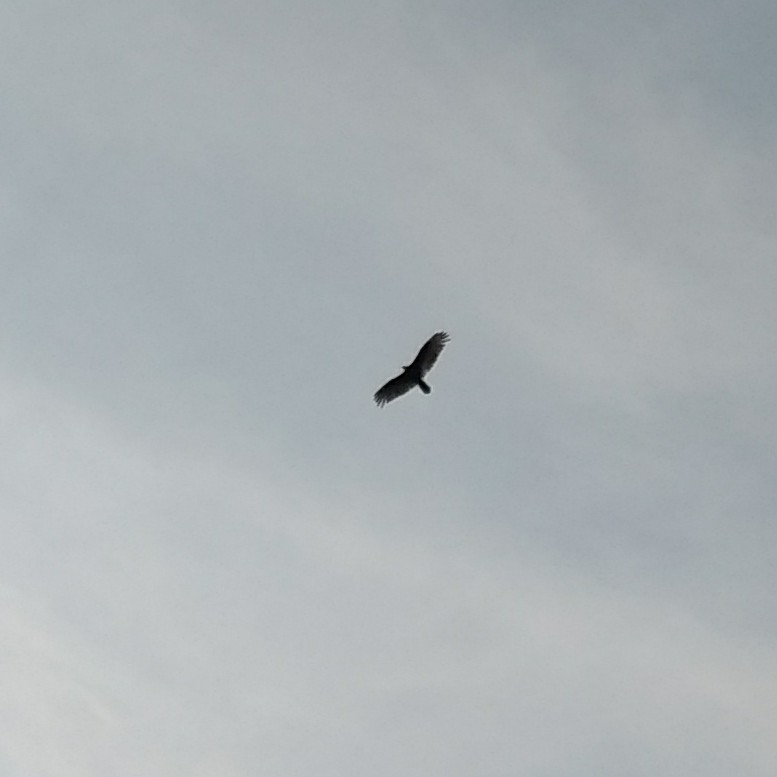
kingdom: Animalia
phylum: Chordata
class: Aves
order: Accipitriformes
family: Cathartidae
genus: Cathartes
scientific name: Cathartes aura
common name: Turkey vulture
